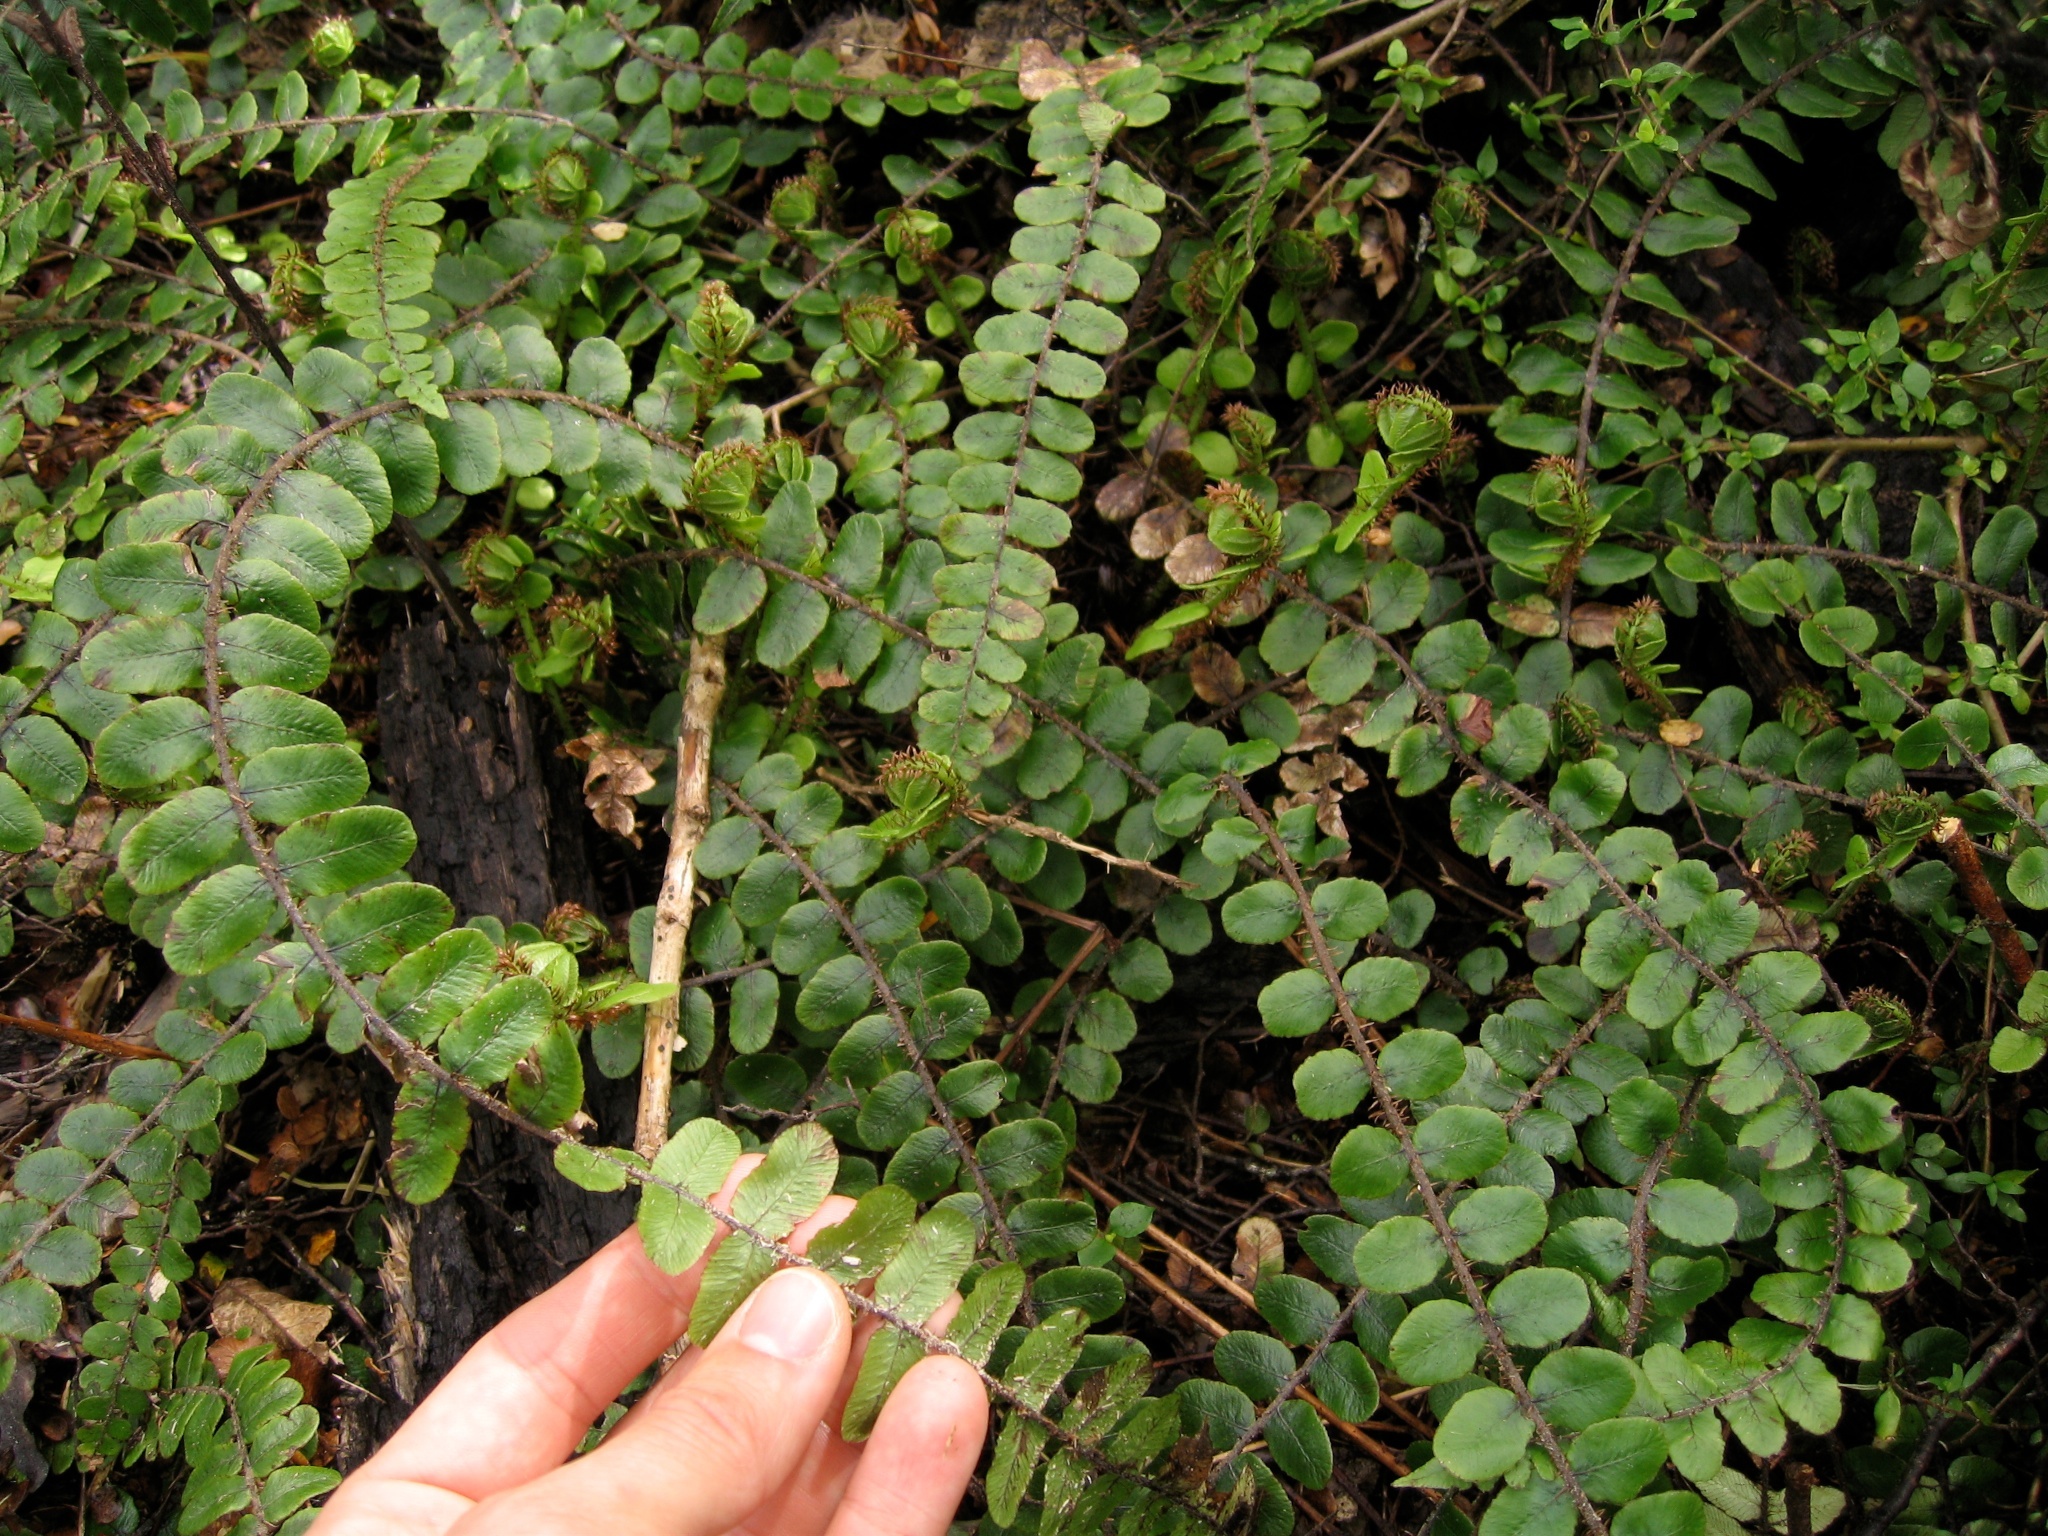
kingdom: Plantae
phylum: Tracheophyta
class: Polypodiopsida
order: Polypodiales
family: Blechnaceae
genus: Cranfillia
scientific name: Cranfillia fluviatilis
